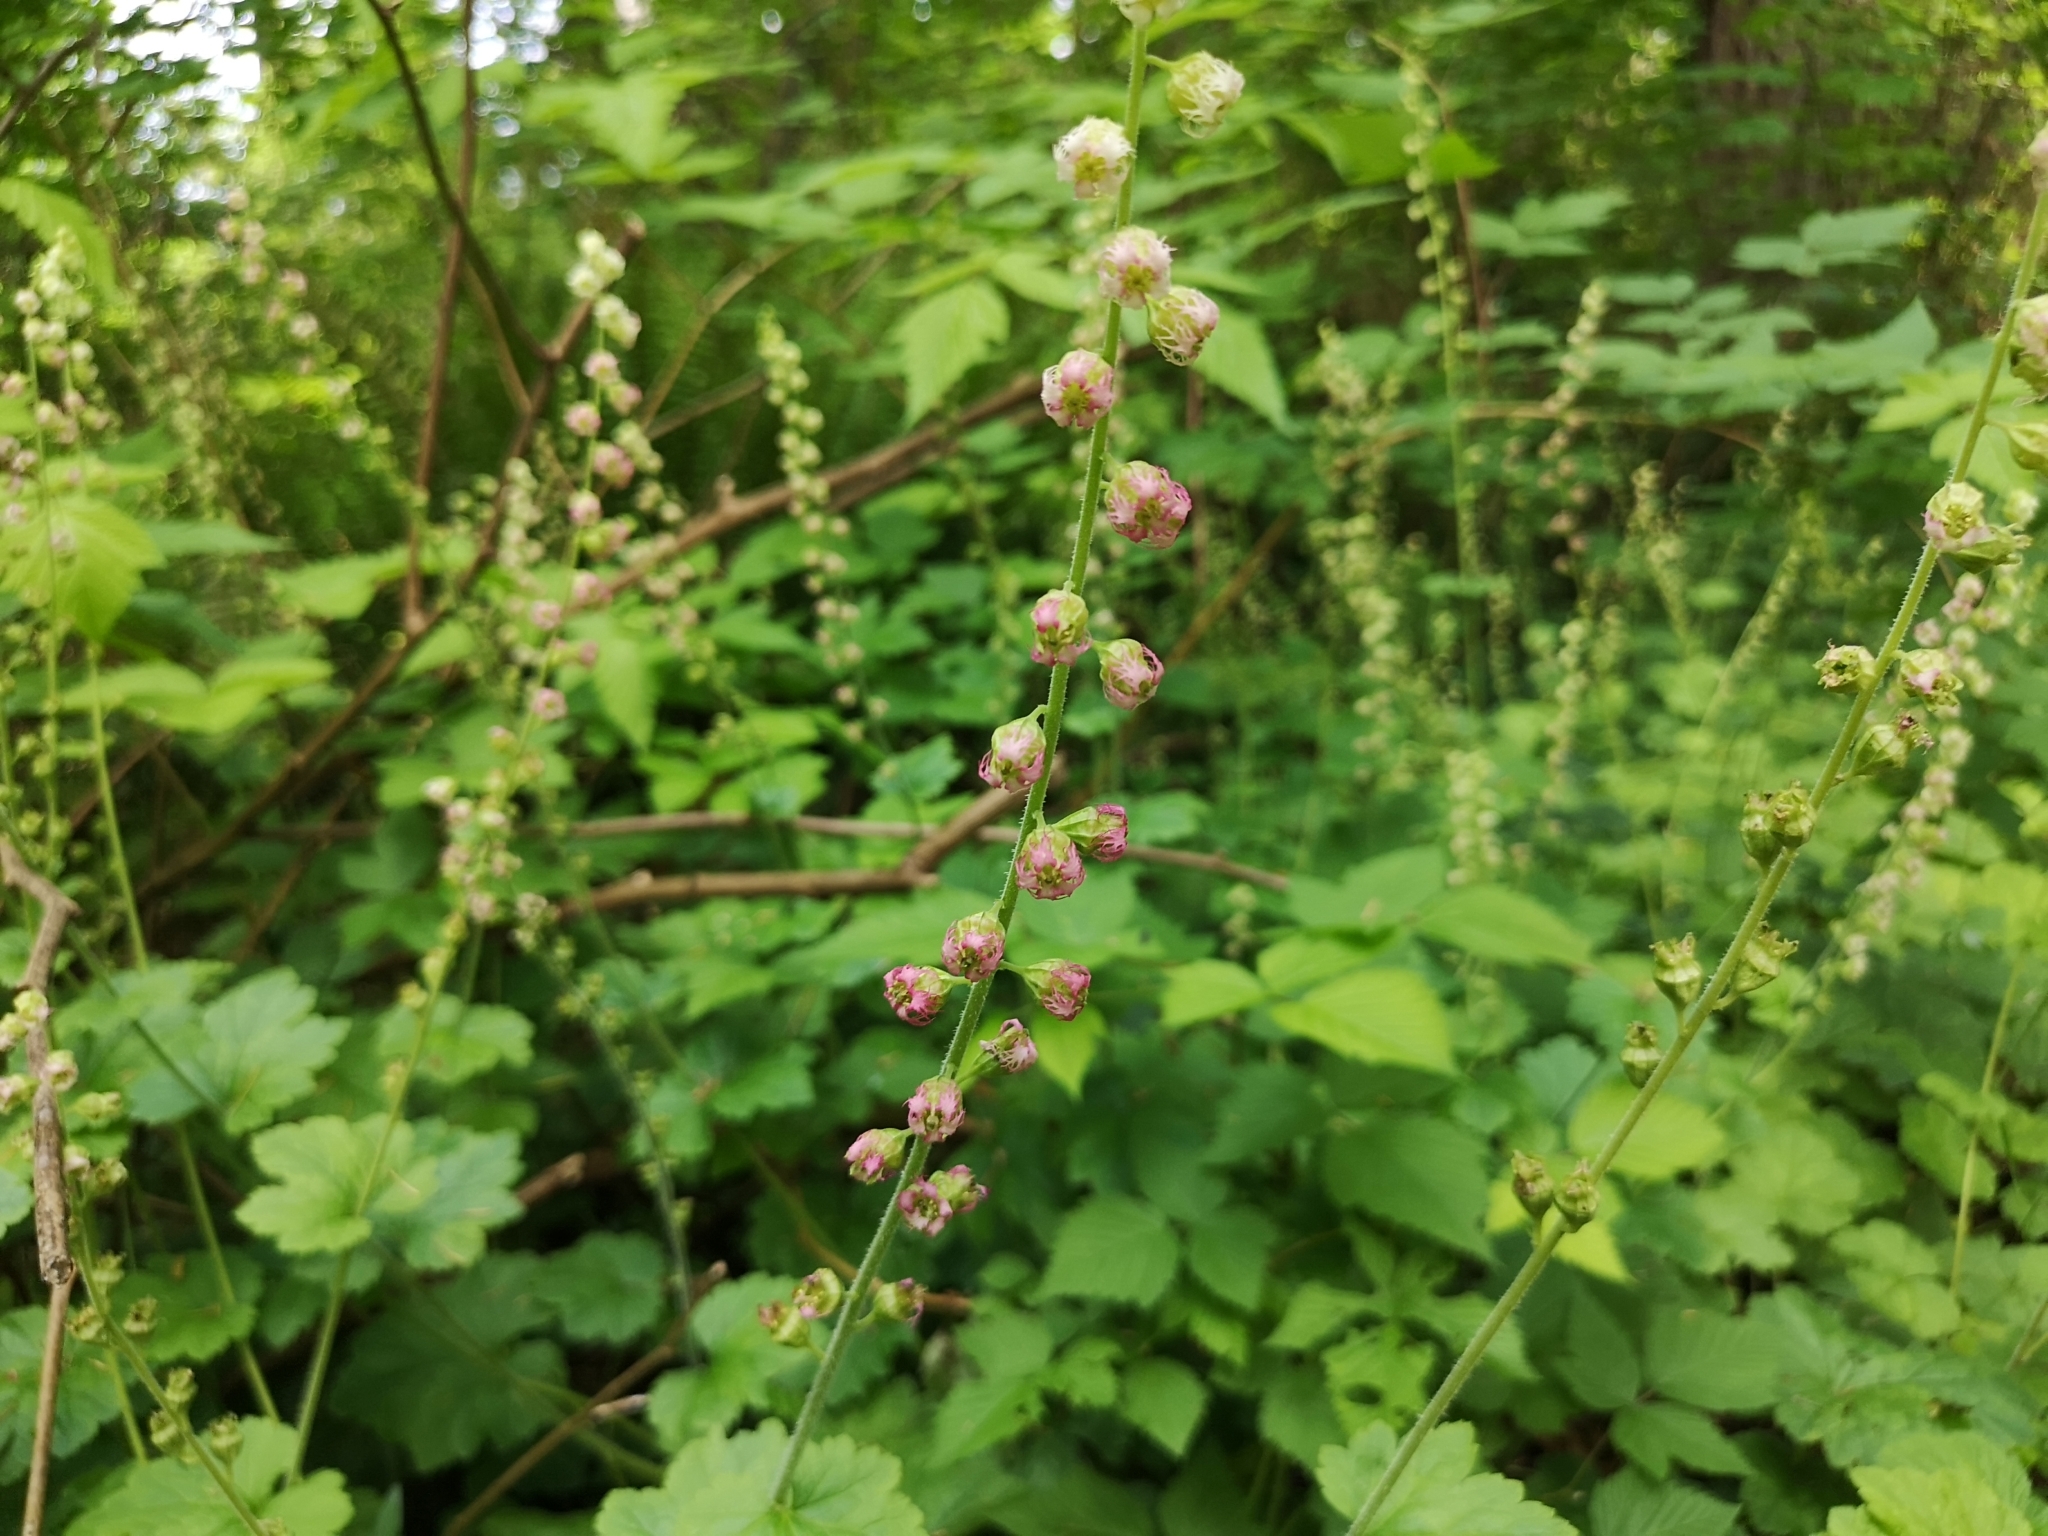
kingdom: Plantae
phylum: Tracheophyta
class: Magnoliopsida
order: Saxifragales
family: Saxifragaceae
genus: Tellima
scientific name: Tellima grandiflora
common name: Fringecups
